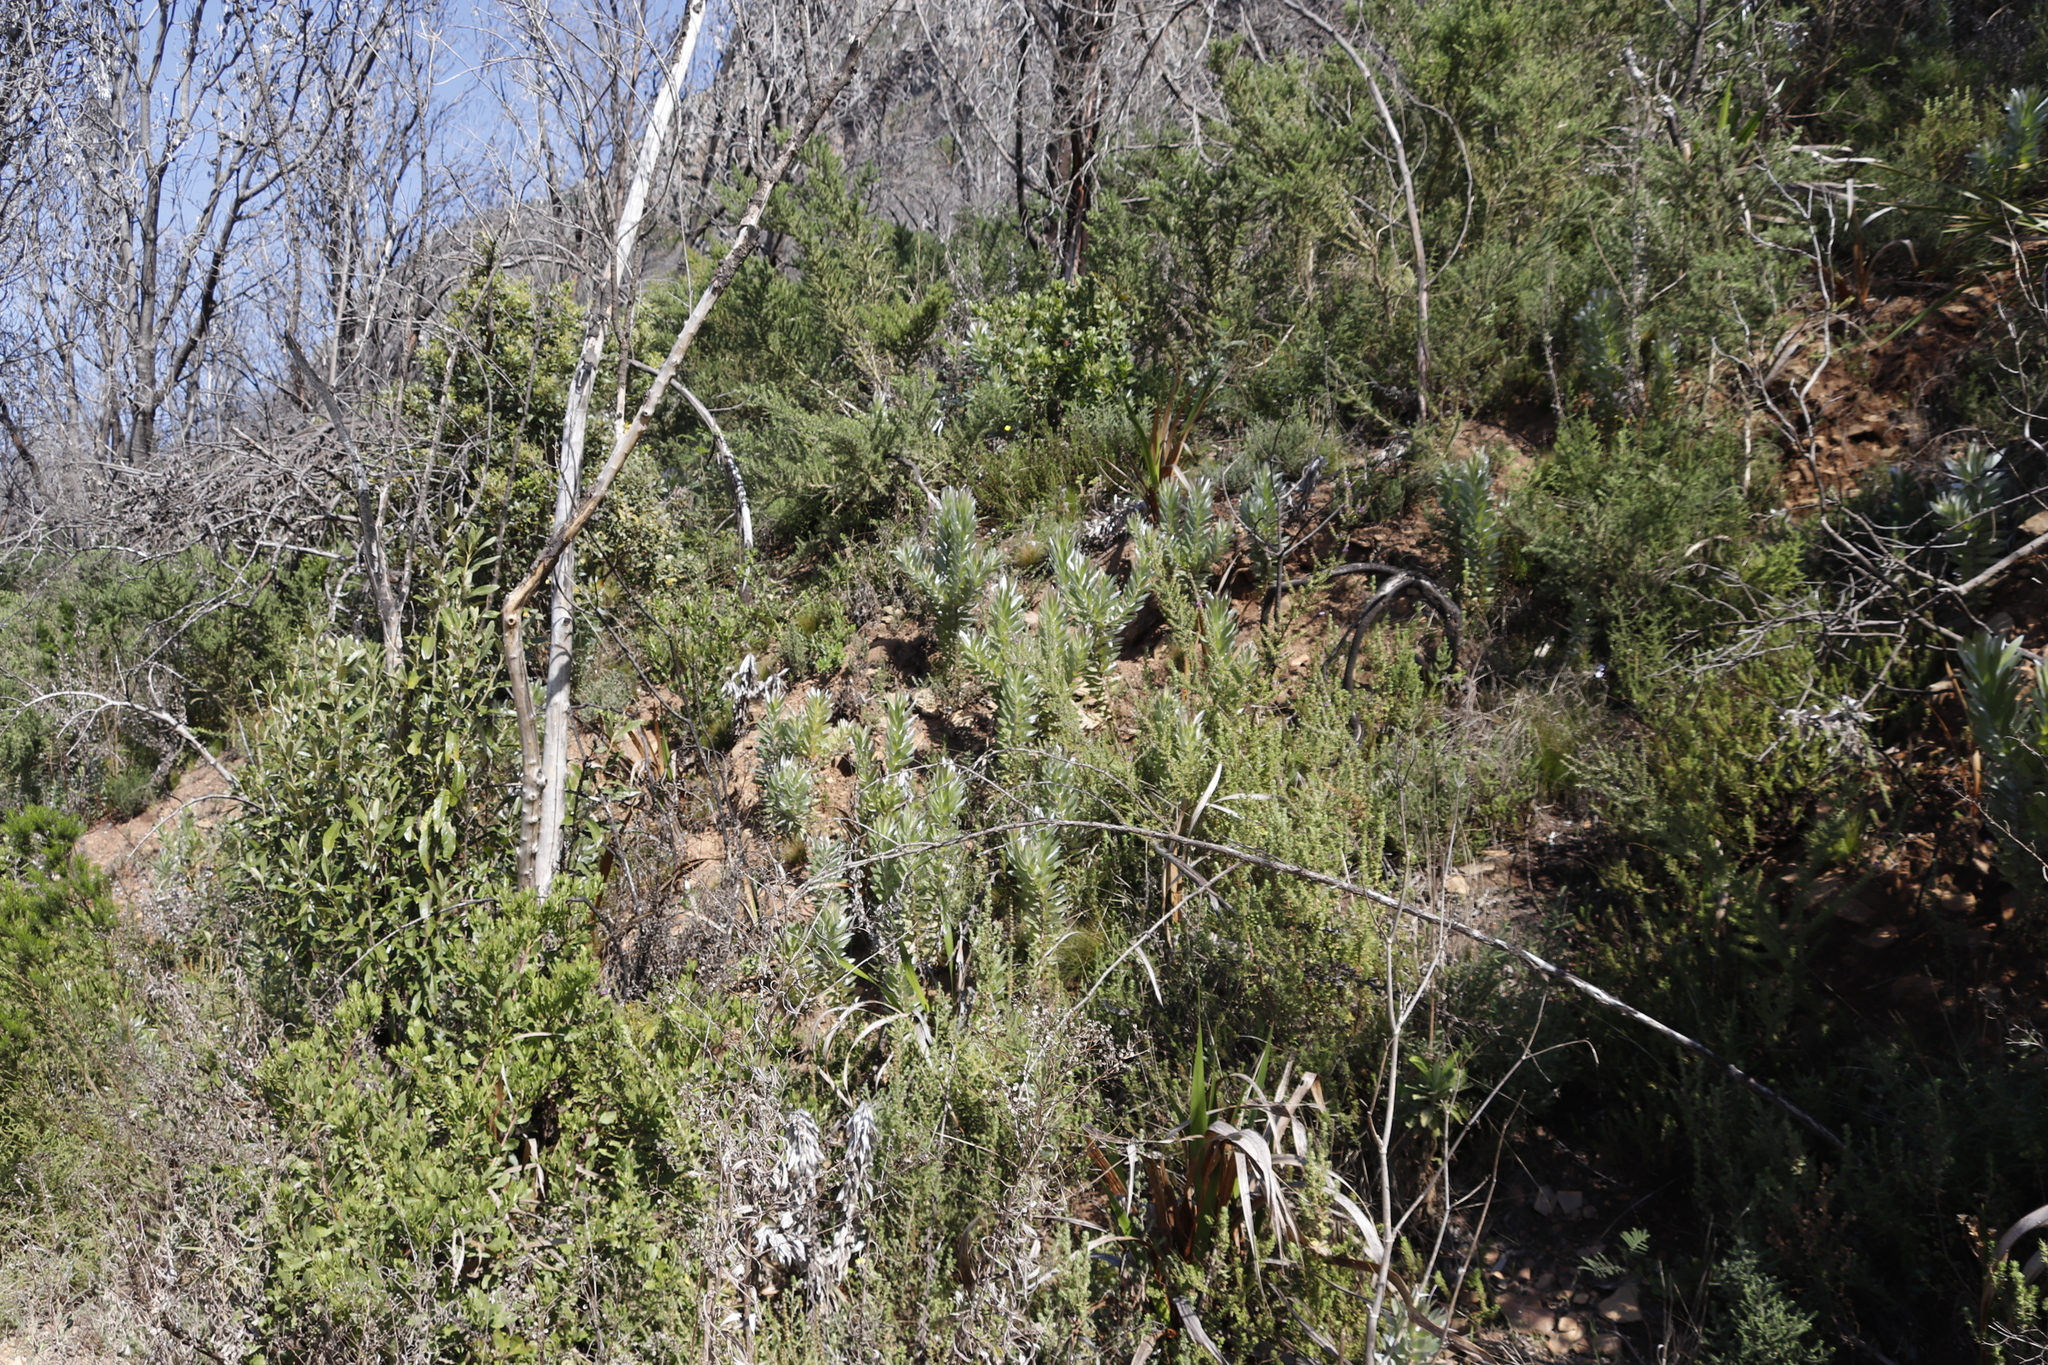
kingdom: Plantae
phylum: Tracheophyta
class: Magnoliopsida
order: Proteales
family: Proteaceae
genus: Leucadendron
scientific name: Leucadendron argenteum
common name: Cape silver tree
